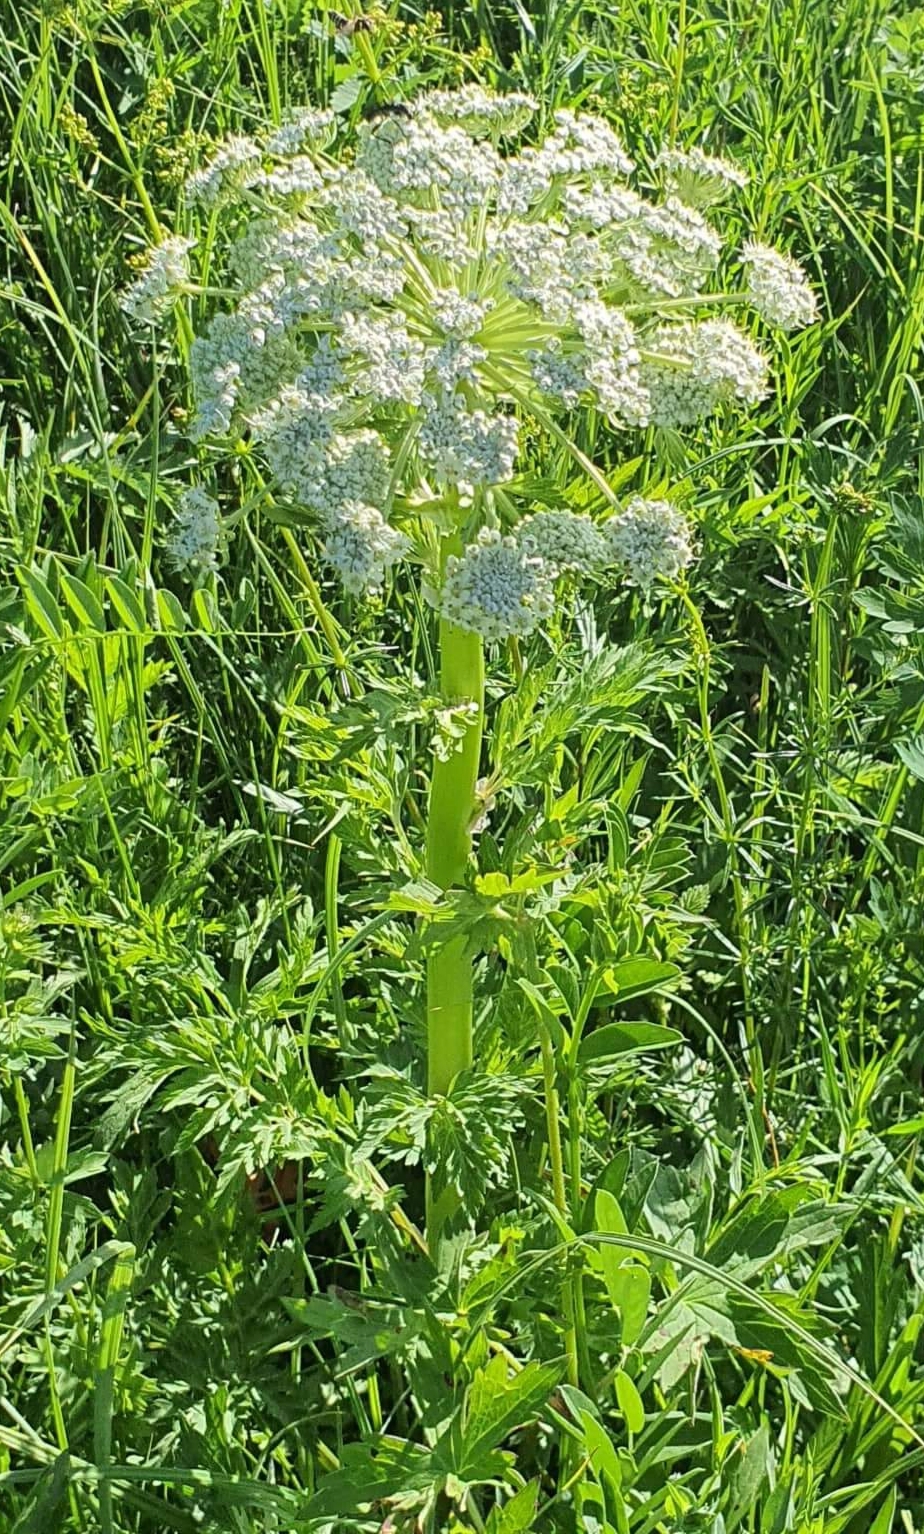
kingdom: Plantae
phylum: Tracheophyta
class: Magnoliopsida
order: Apiales
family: Apiaceae
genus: Pleurospermum
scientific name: Pleurospermum uralense
